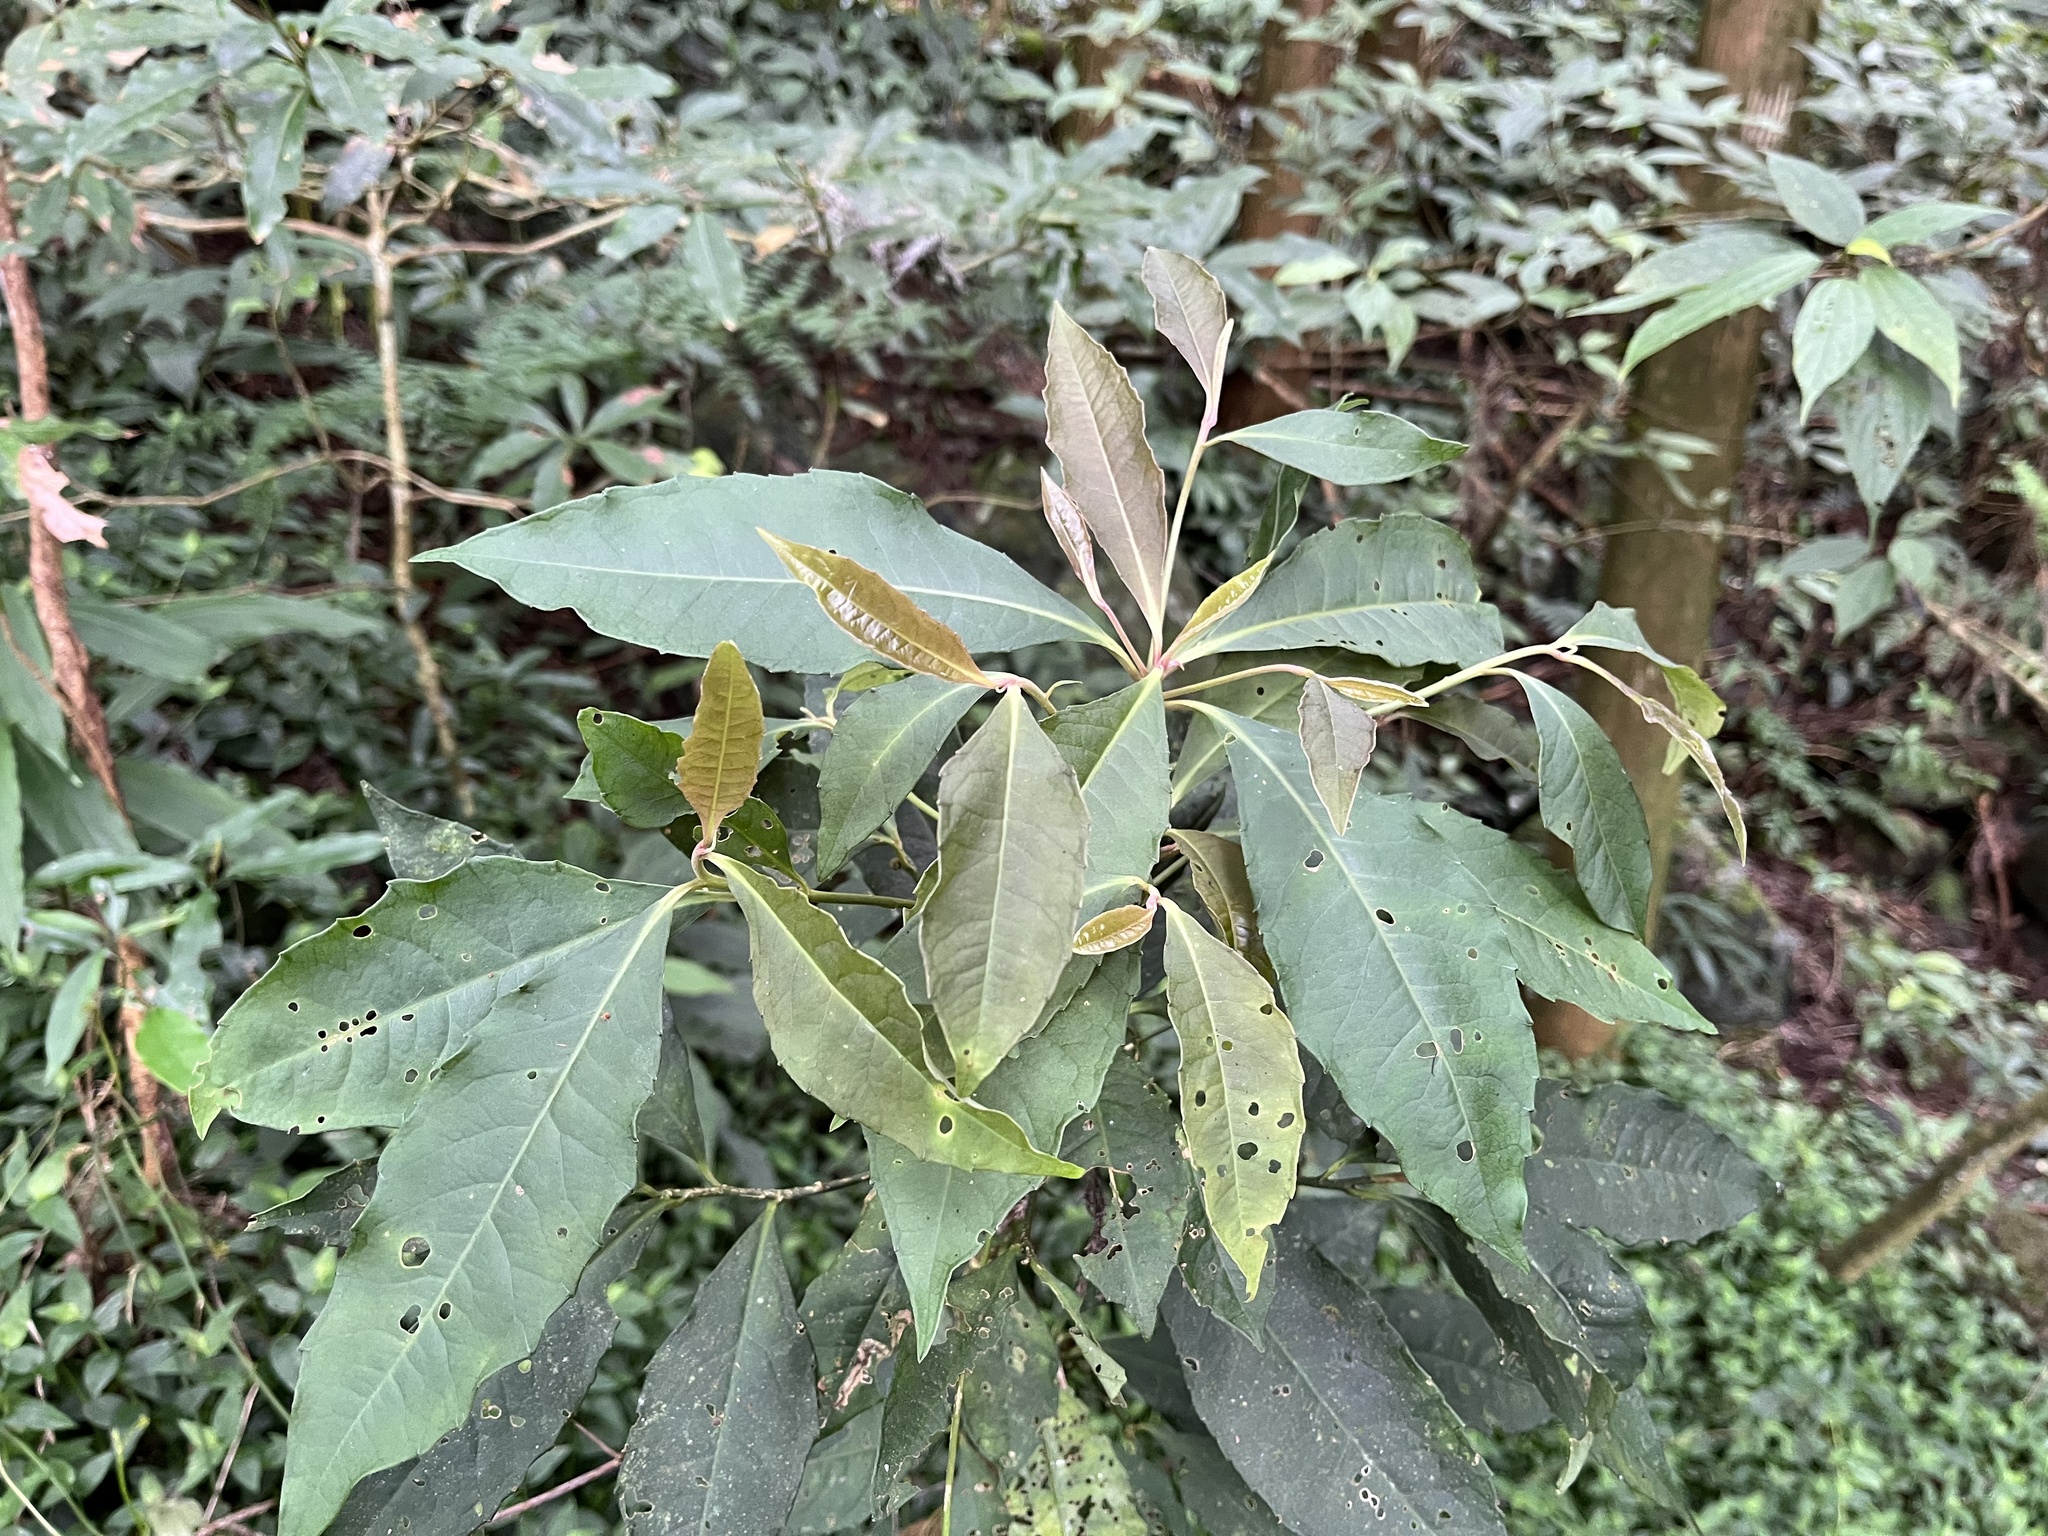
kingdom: Plantae
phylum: Tracheophyta
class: Magnoliopsida
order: Ericales
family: Primulaceae
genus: Ardisia
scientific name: Ardisia cornudentata
